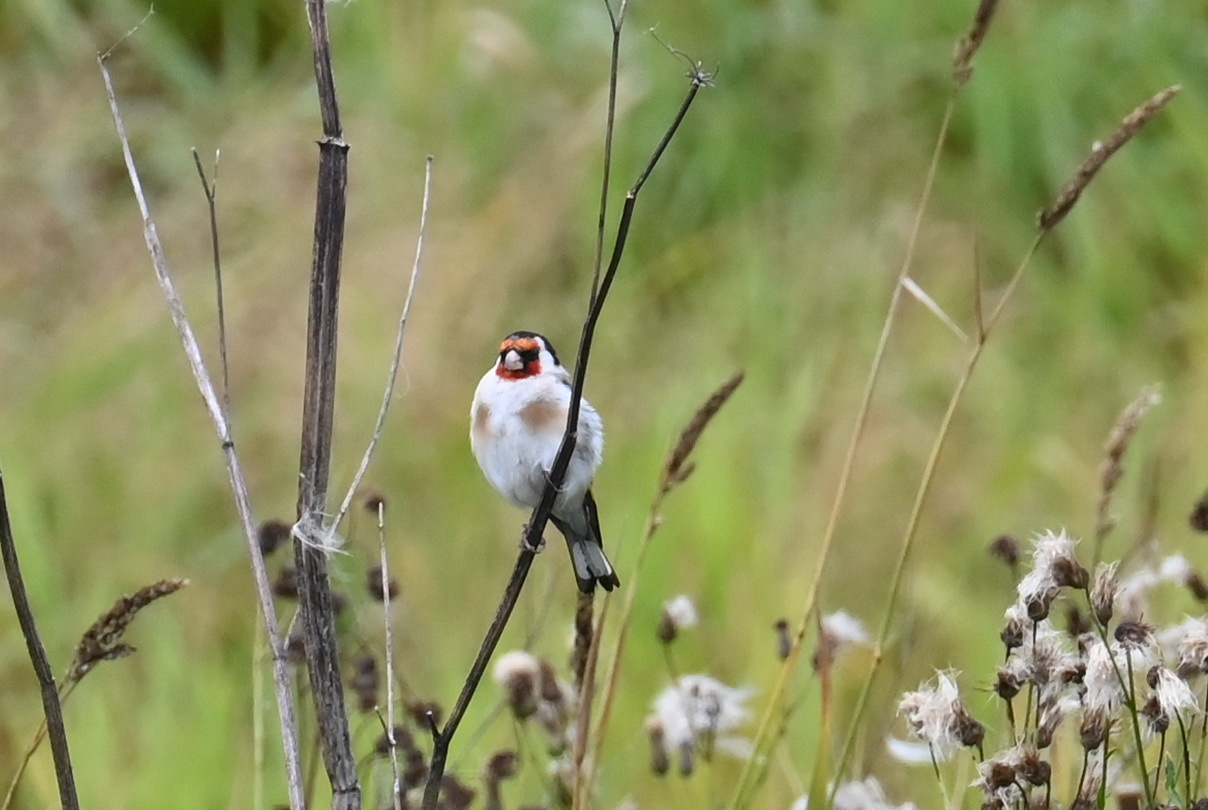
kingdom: Animalia
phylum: Chordata
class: Aves
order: Passeriformes
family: Fringillidae
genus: Carduelis
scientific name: Carduelis carduelis
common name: European goldfinch
